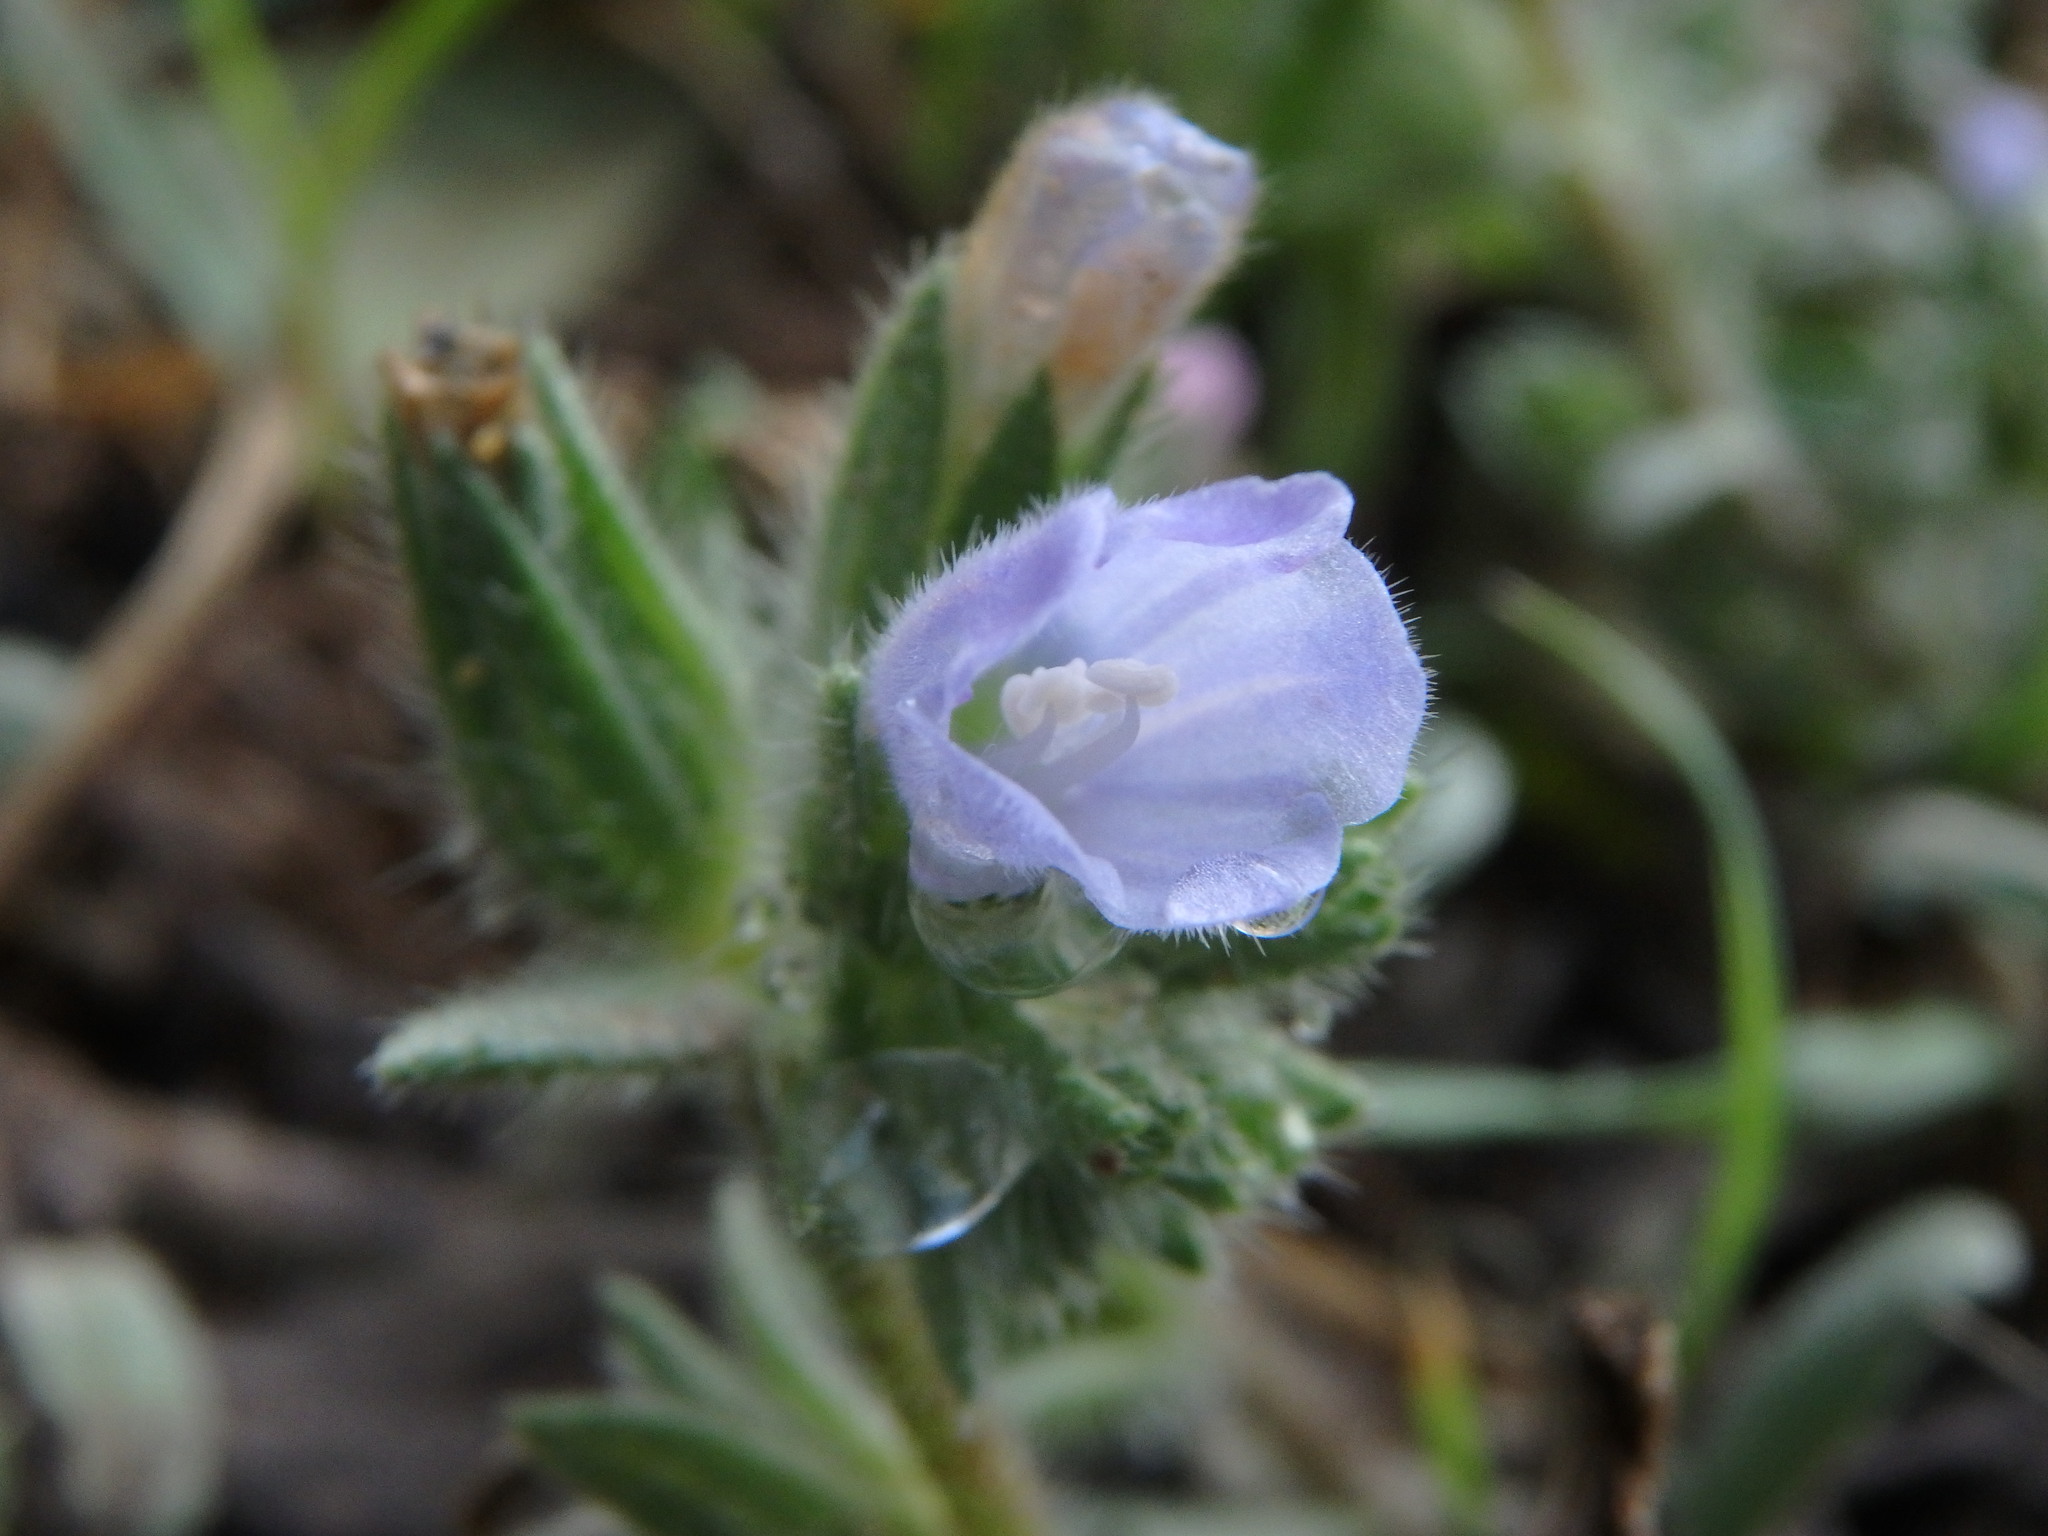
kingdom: Plantae
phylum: Tracheophyta
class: Magnoliopsida
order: Boraginales
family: Boraginaceae
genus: Echium
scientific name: Echium parviflorum
